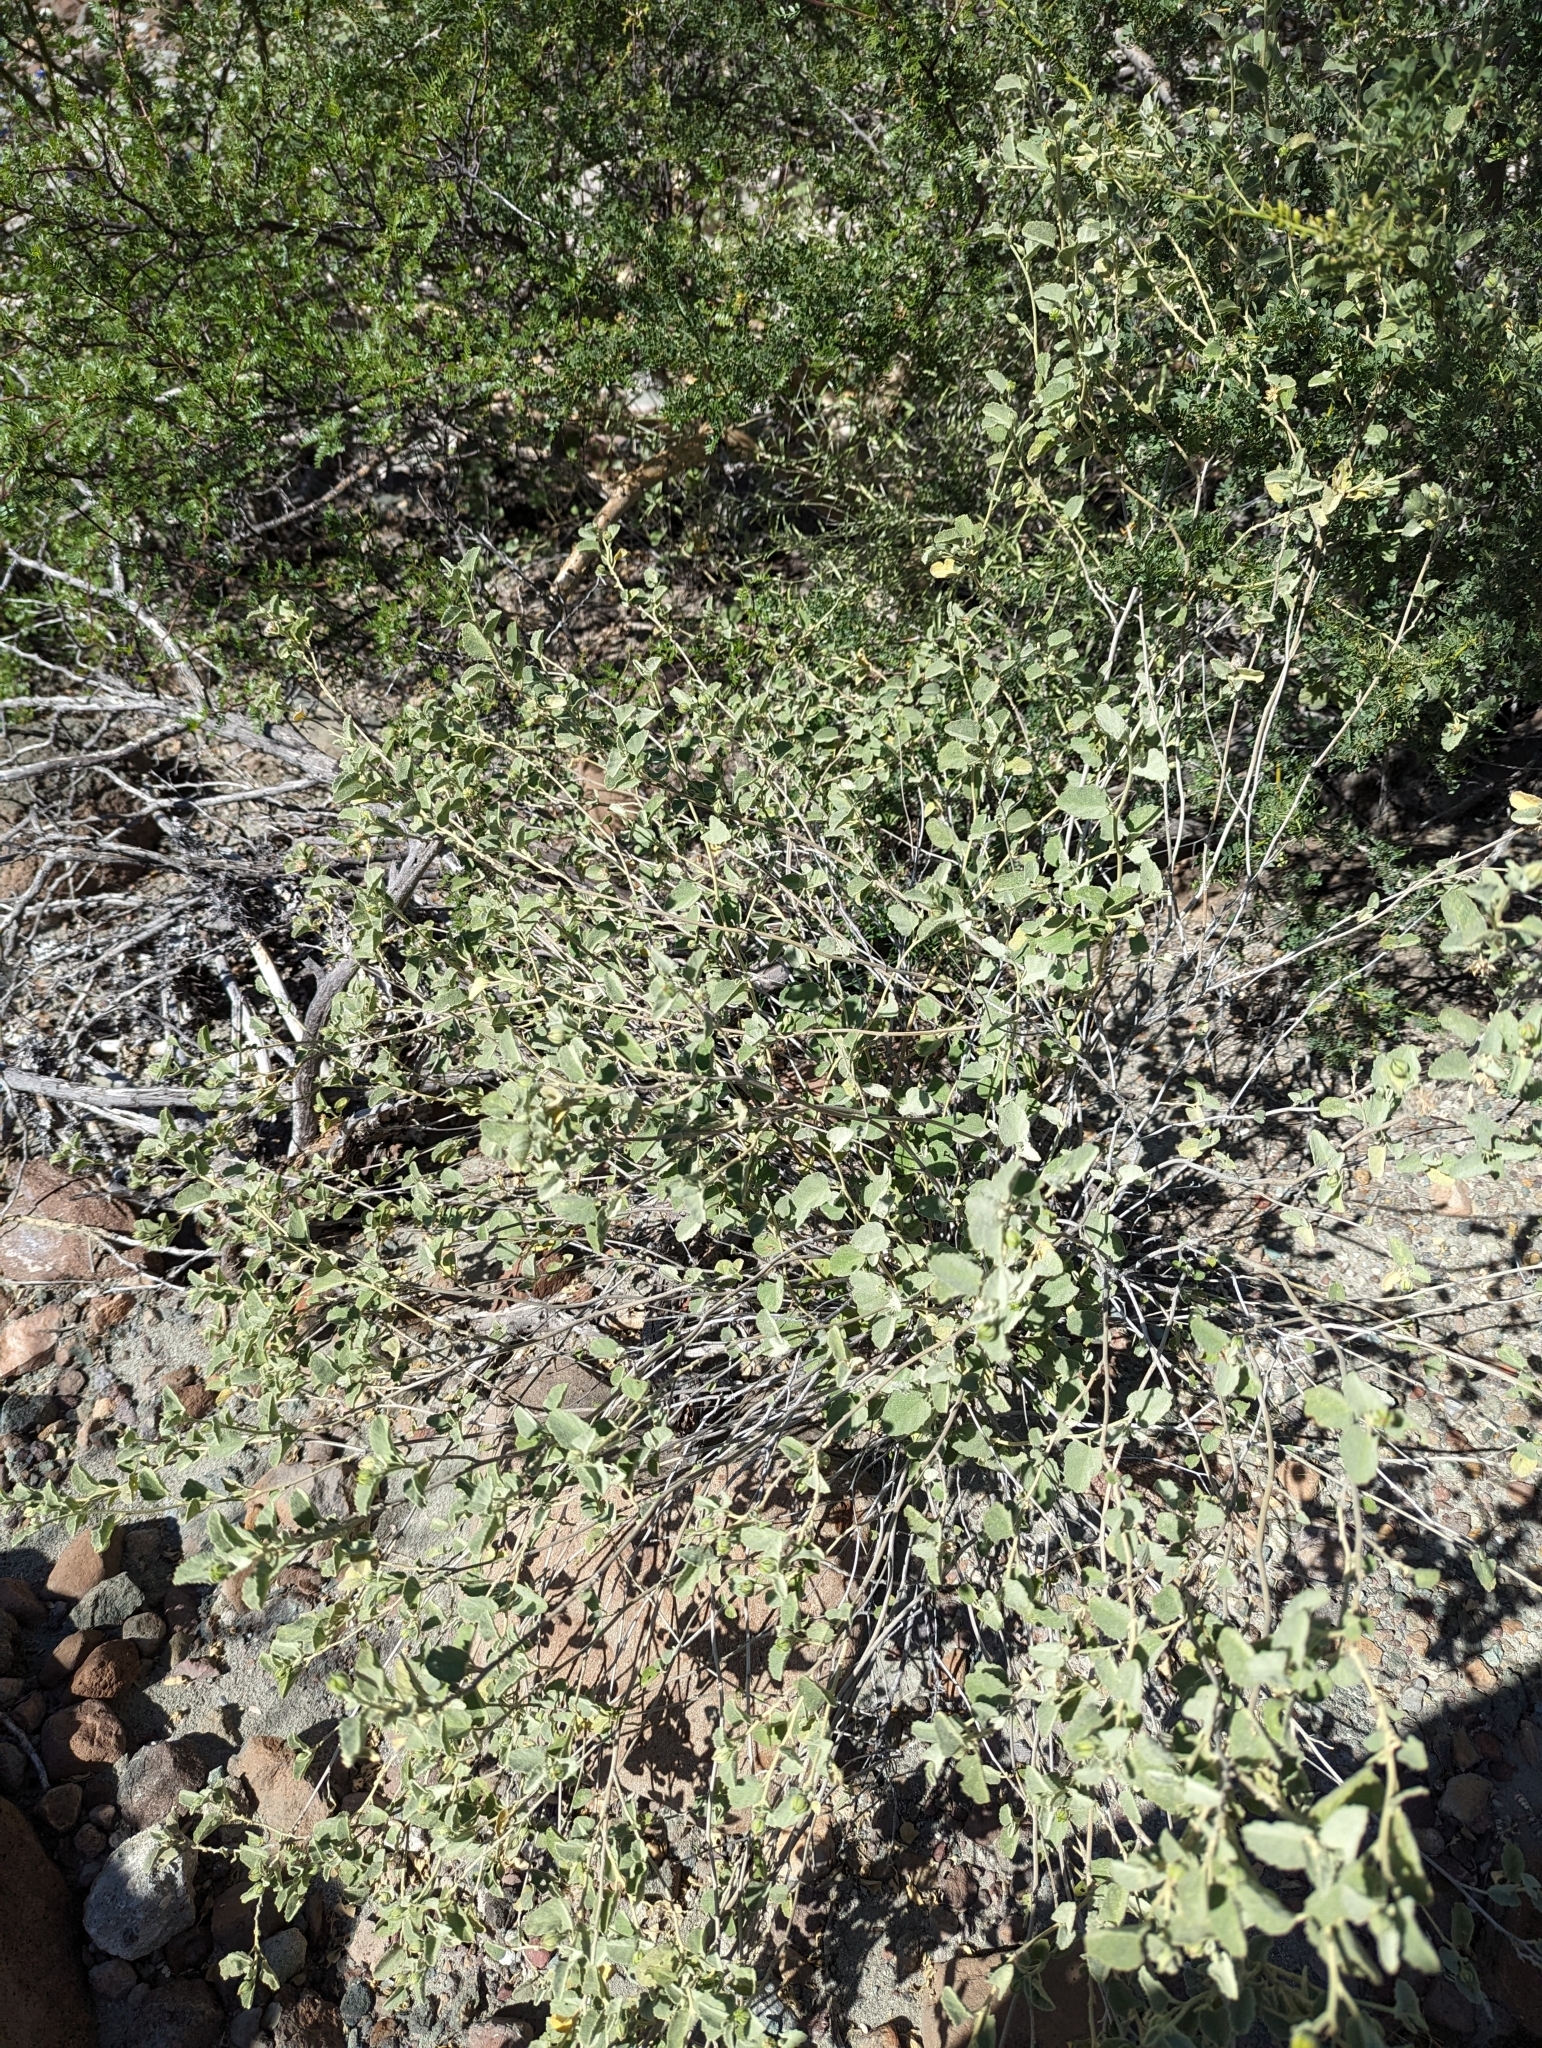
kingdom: Plantae
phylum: Tracheophyta
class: Magnoliopsida
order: Malvales
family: Malvaceae
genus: Hibiscus
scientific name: Hibiscus denudatus
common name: Paleface
